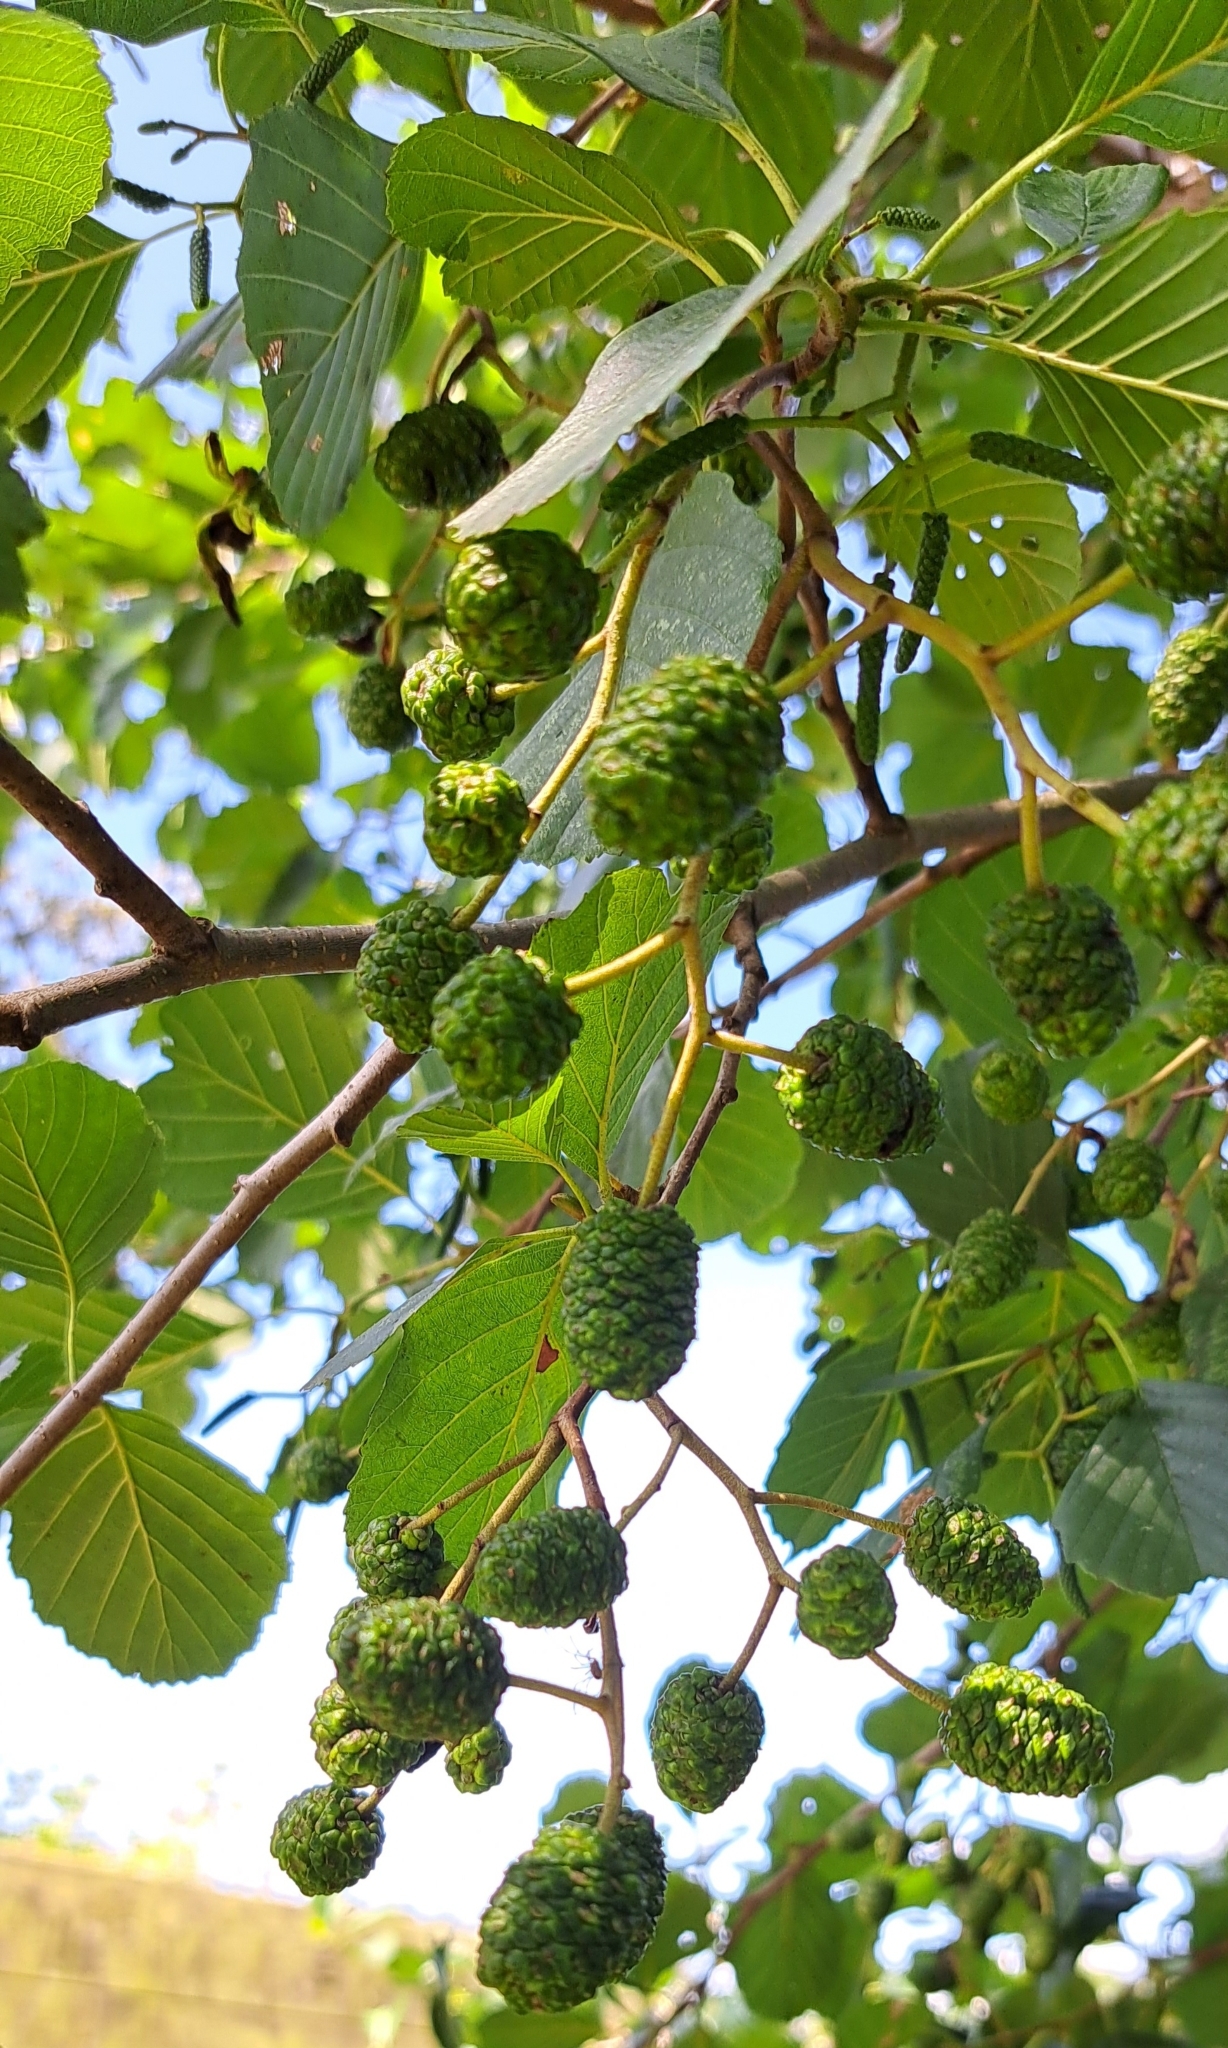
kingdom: Plantae
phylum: Tracheophyta
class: Magnoliopsida
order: Fagales
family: Betulaceae
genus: Alnus
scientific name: Alnus glutinosa
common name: Black alder
